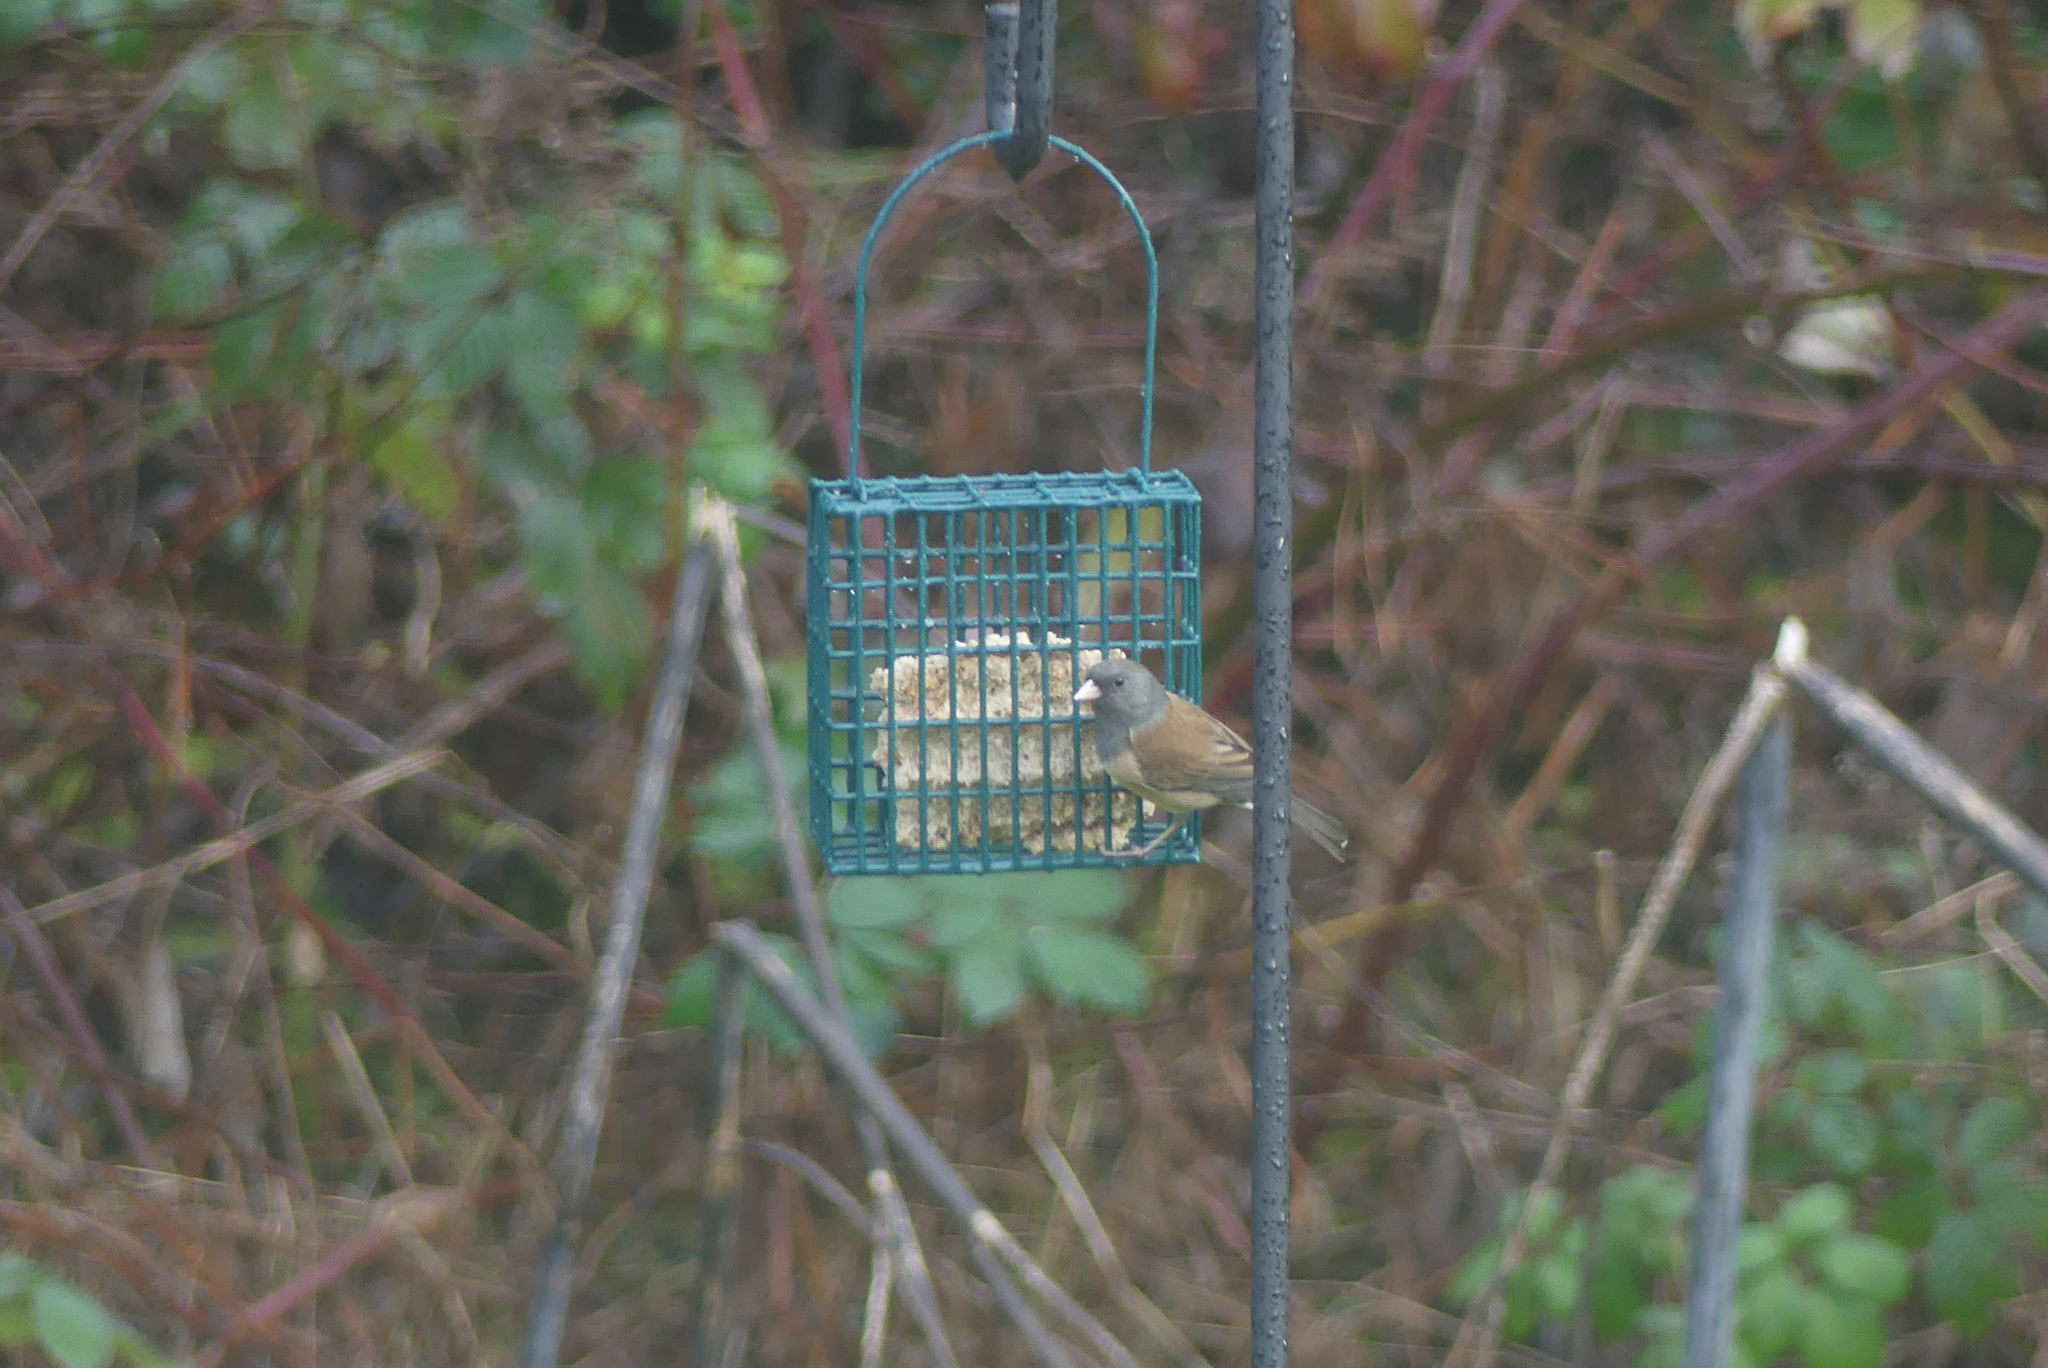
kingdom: Animalia
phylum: Chordata
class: Aves
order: Passeriformes
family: Passerellidae
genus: Junco
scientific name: Junco hyemalis
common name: Dark-eyed junco
